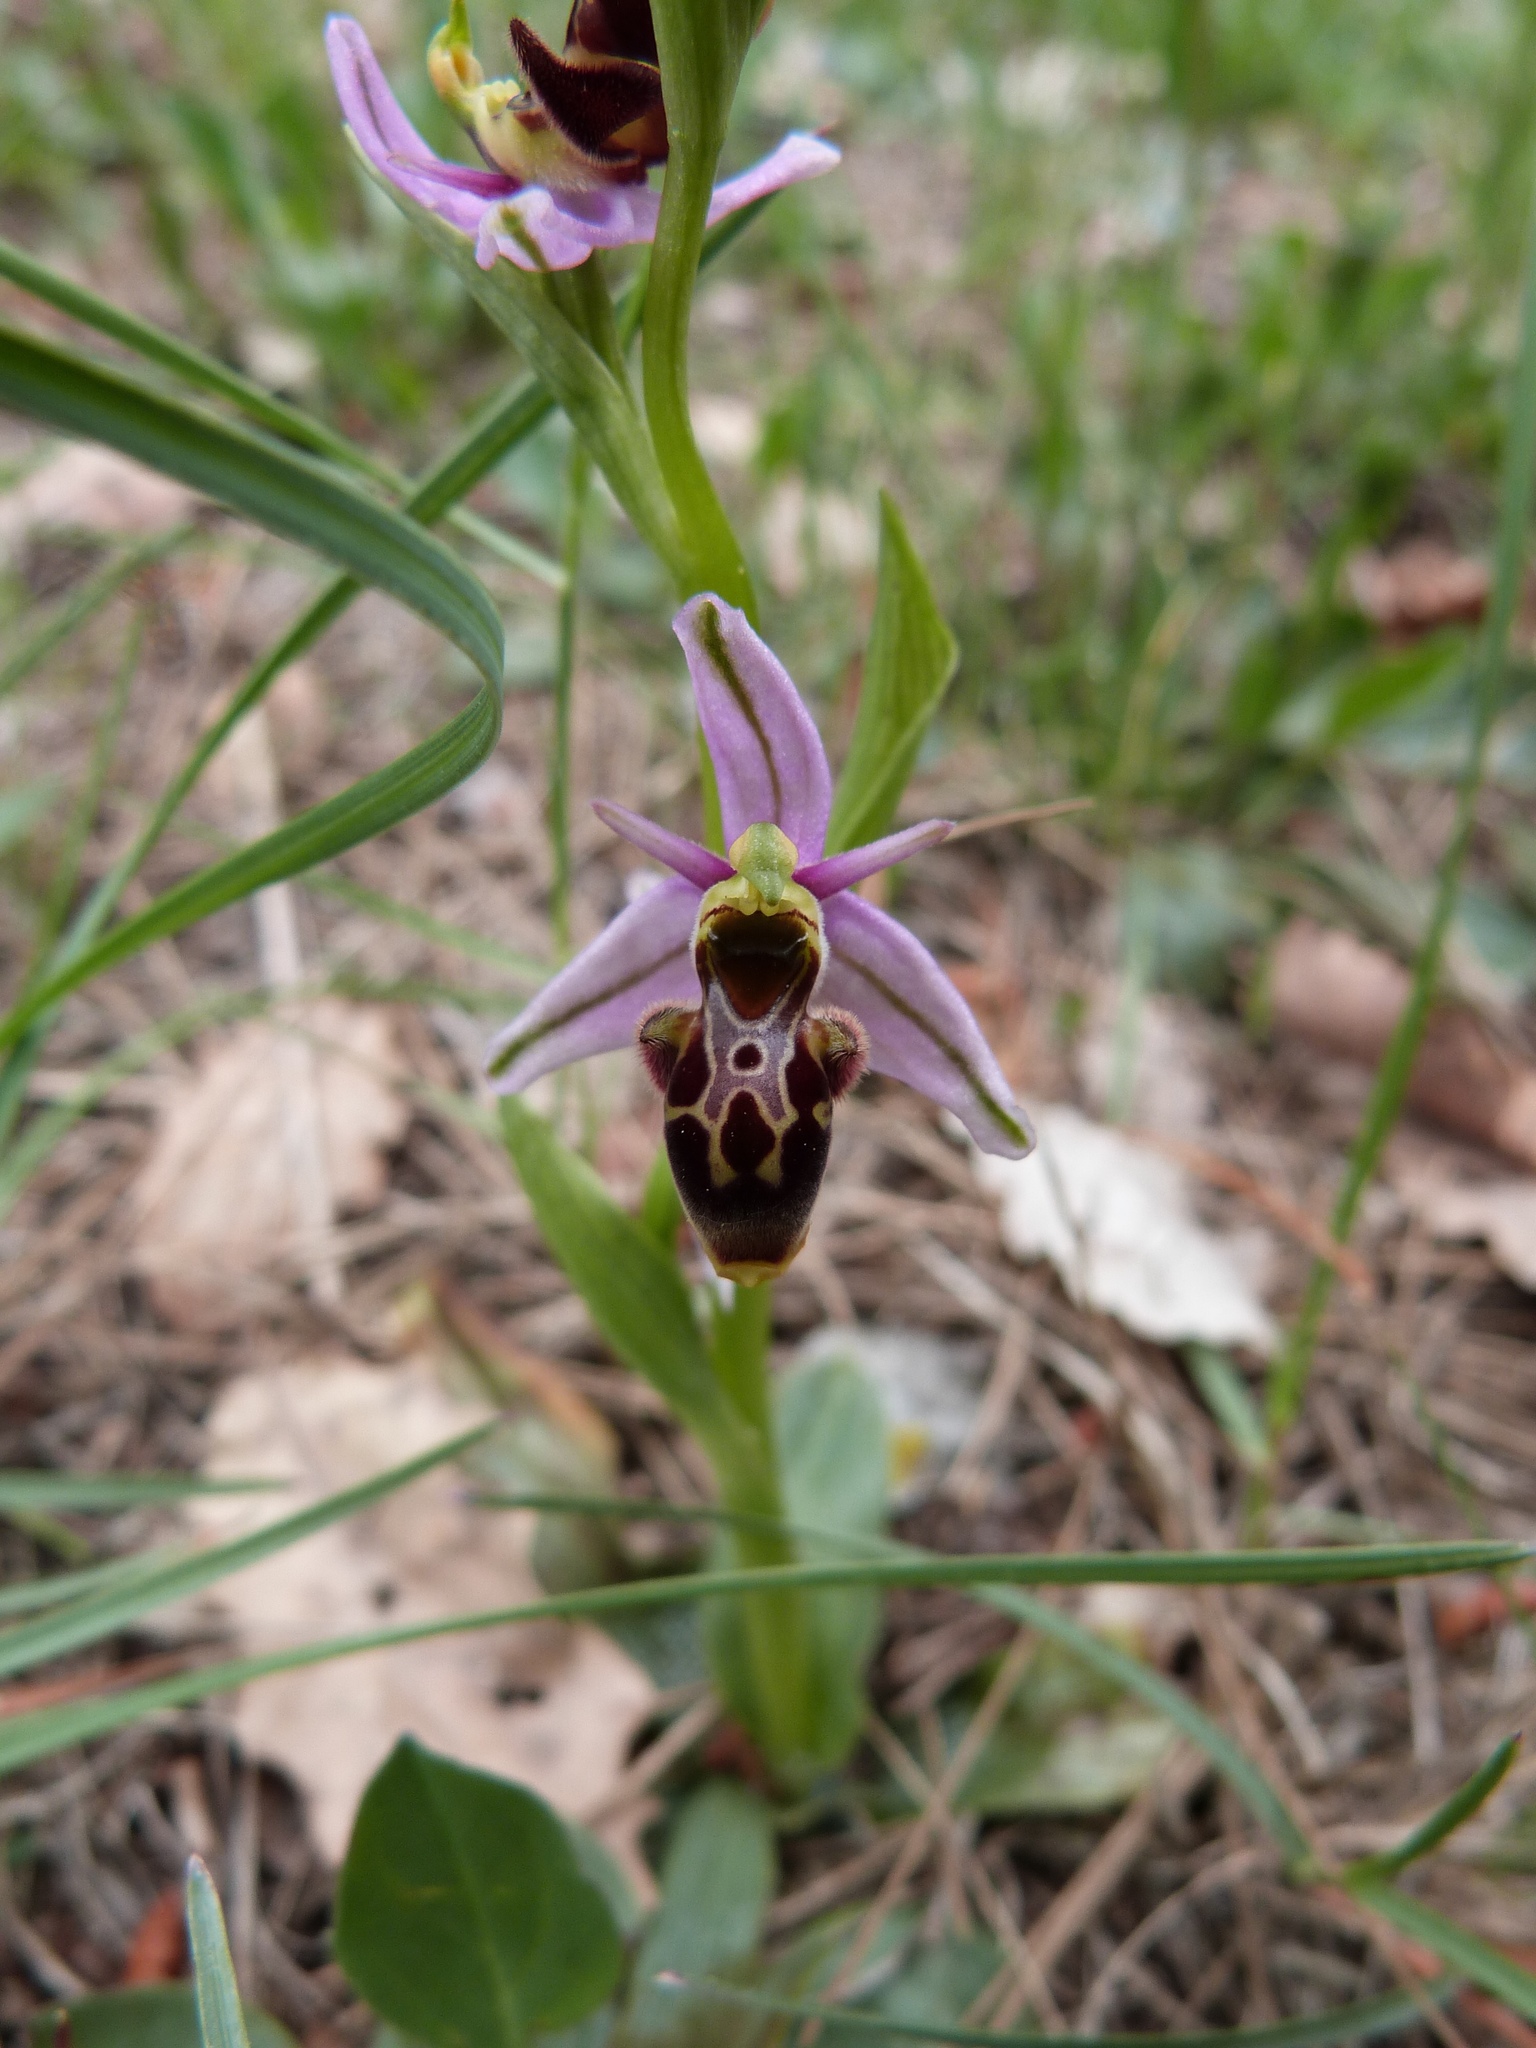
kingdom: Plantae
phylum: Tracheophyta
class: Liliopsida
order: Asparagales
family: Orchidaceae
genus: Ophrys
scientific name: Ophrys scolopax
